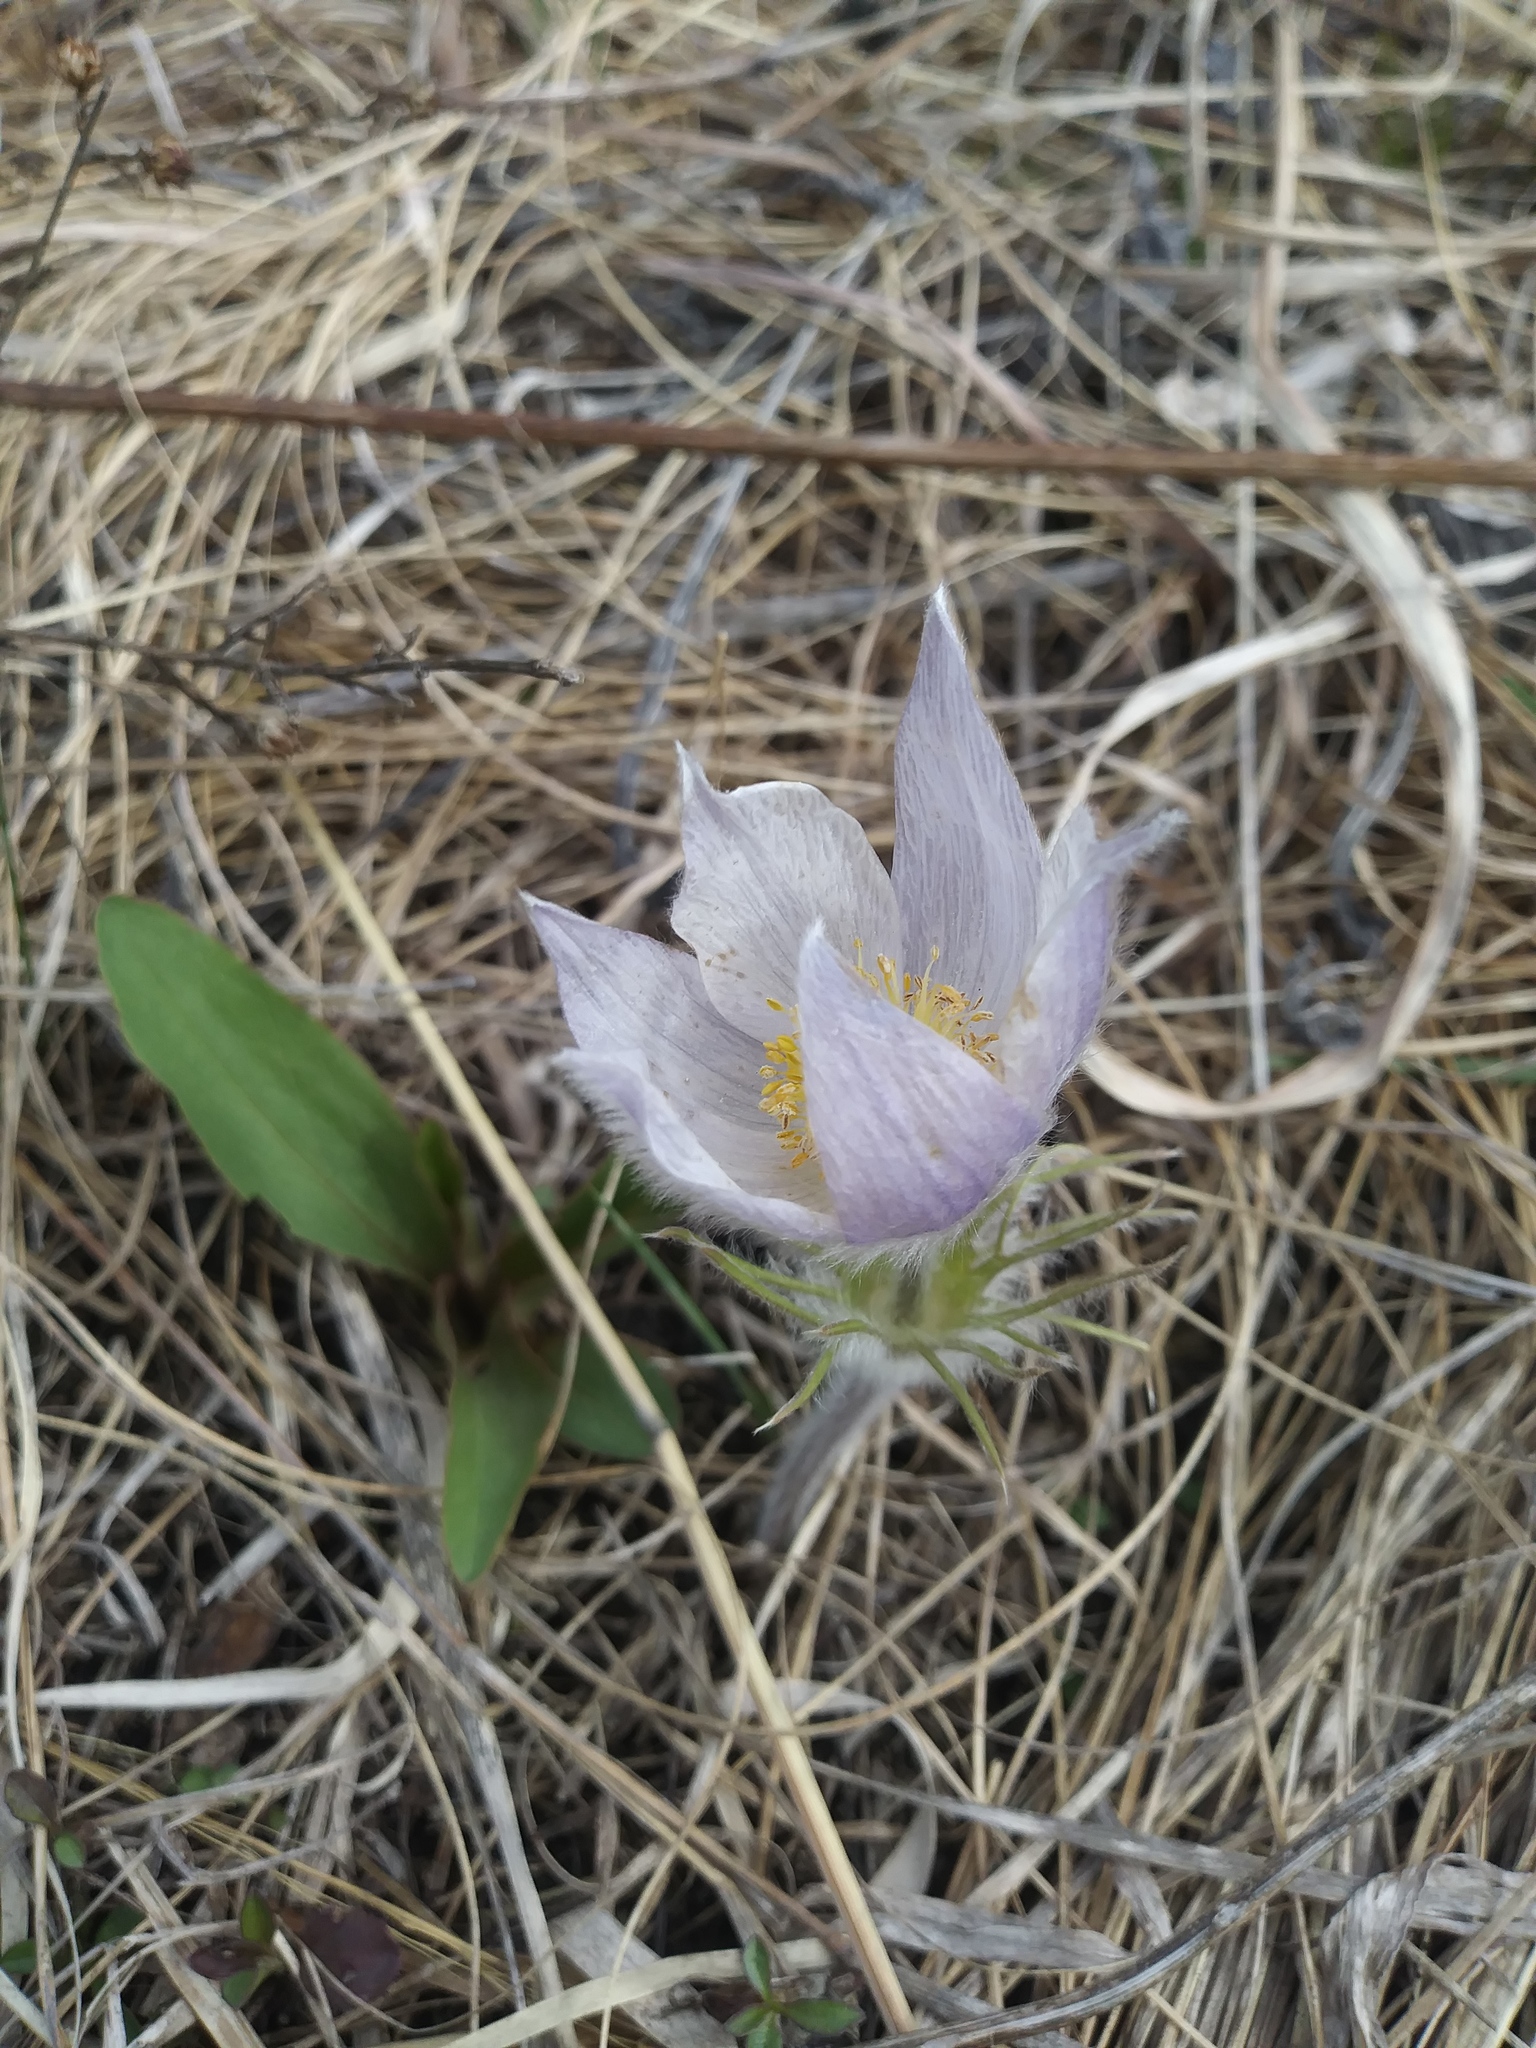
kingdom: Plantae
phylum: Tracheophyta
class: Magnoliopsida
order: Ranunculales
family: Ranunculaceae
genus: Pulsatilla
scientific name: Pulsatilla nuttalliana
